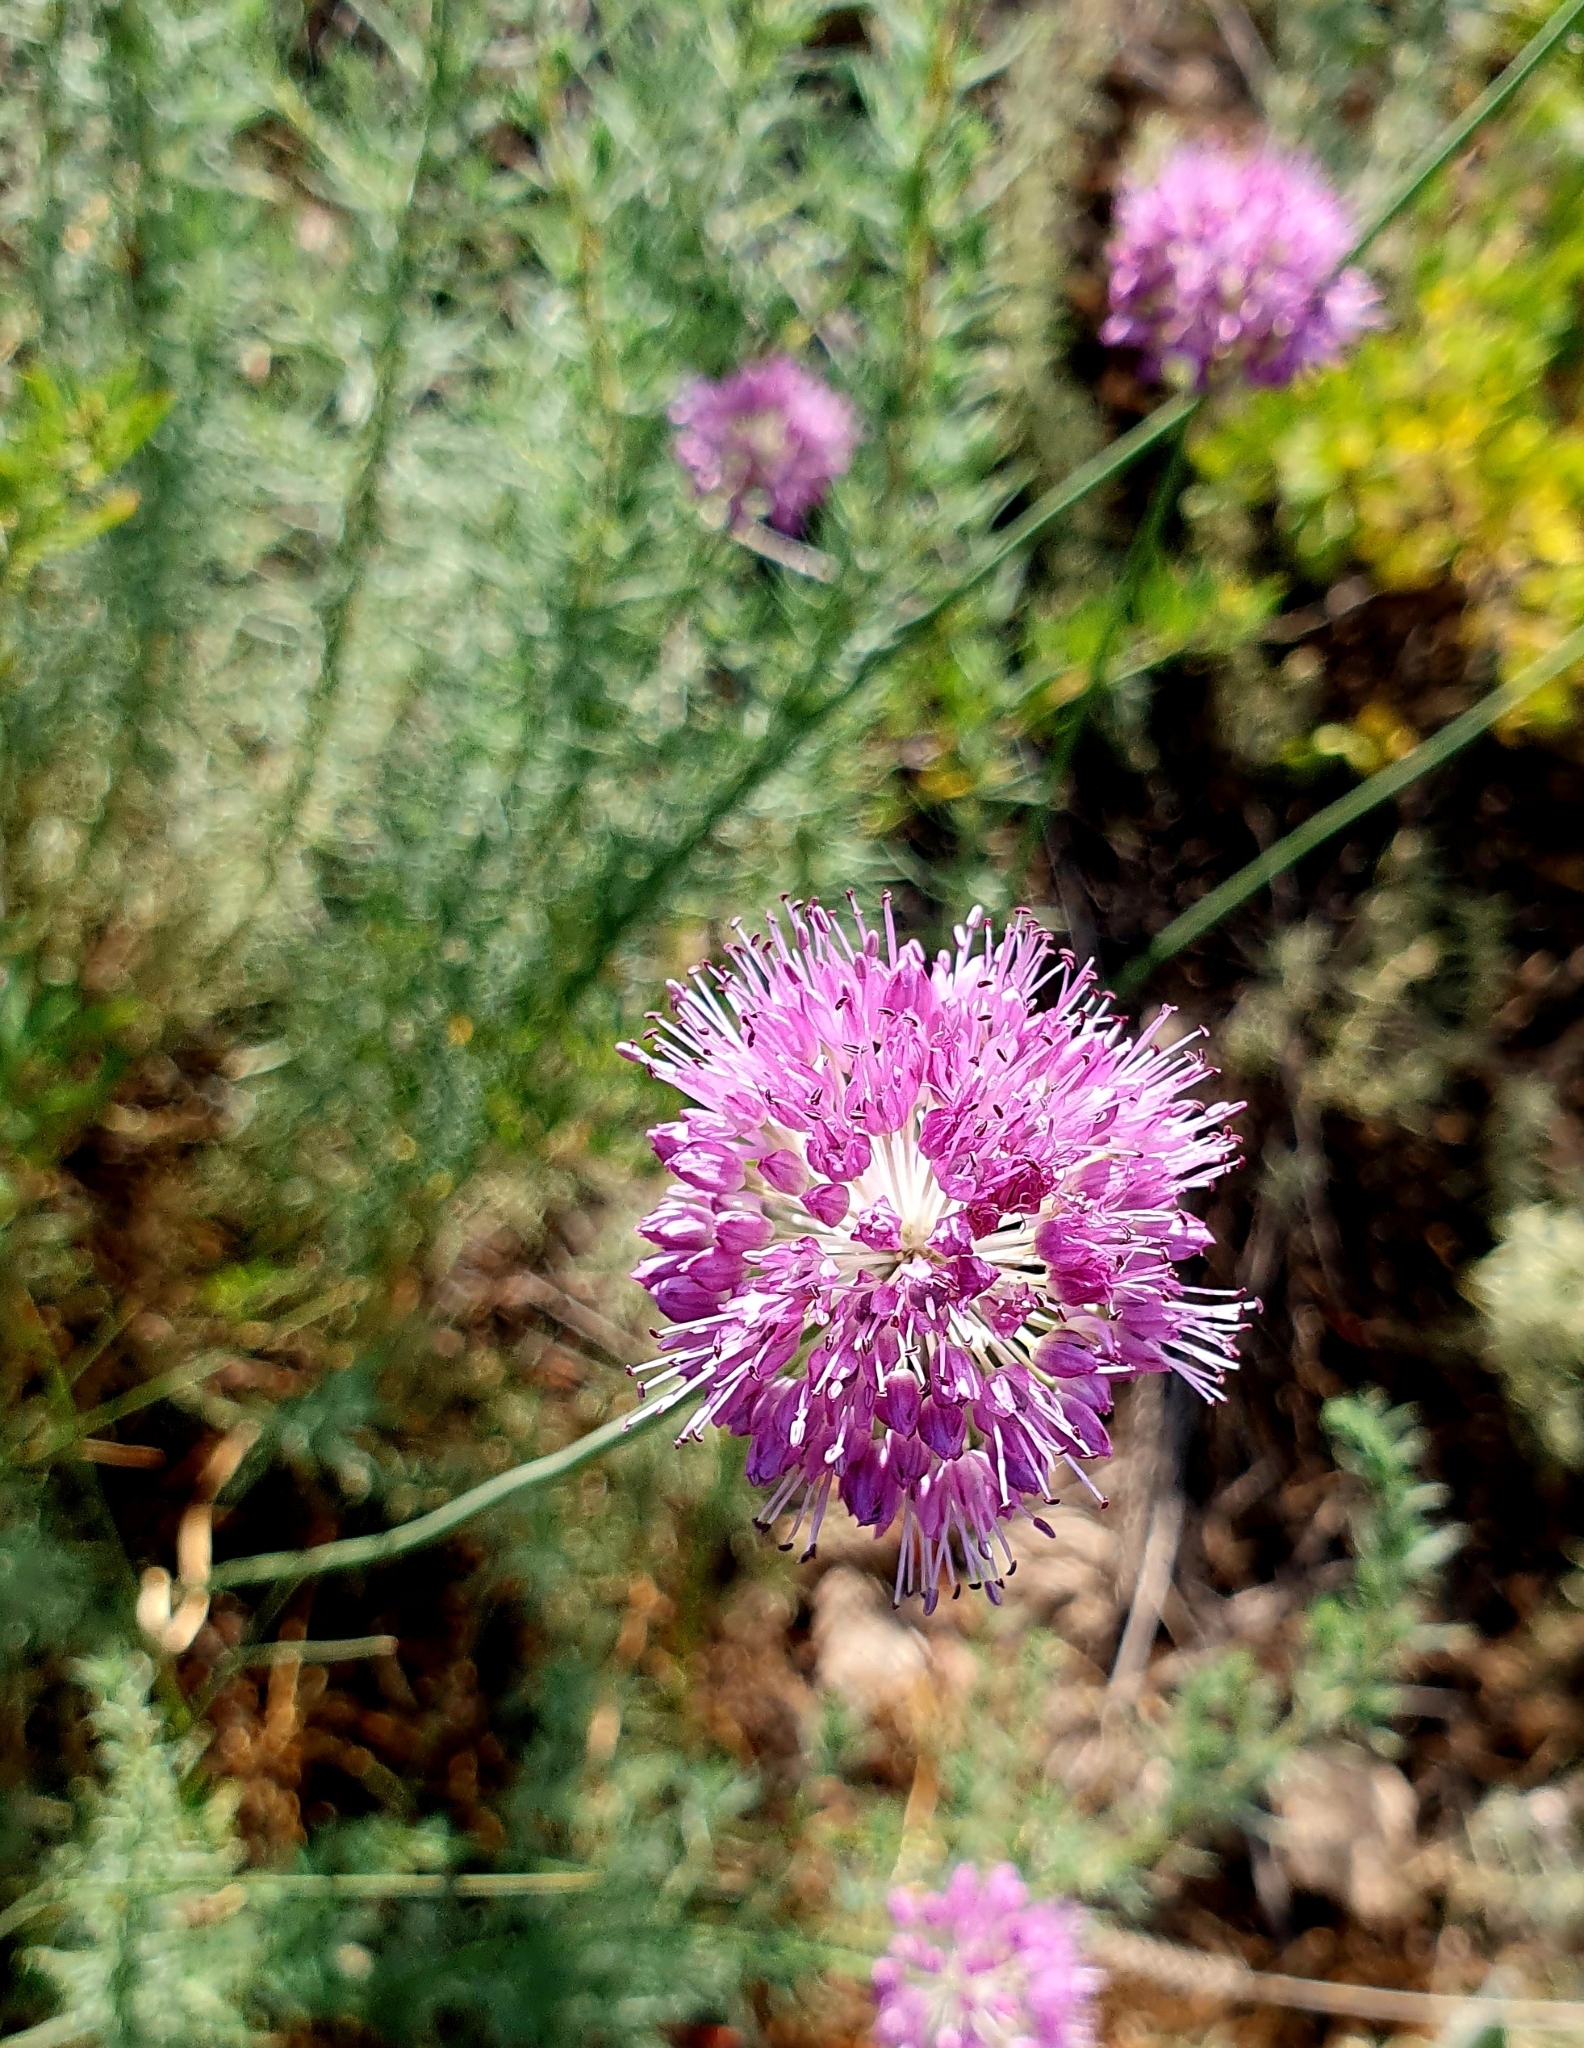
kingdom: Plantae
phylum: Tracheophyta
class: Liliopsida
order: Asparagales
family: Amaryllidaceae
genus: Allium
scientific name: Allium lineare
